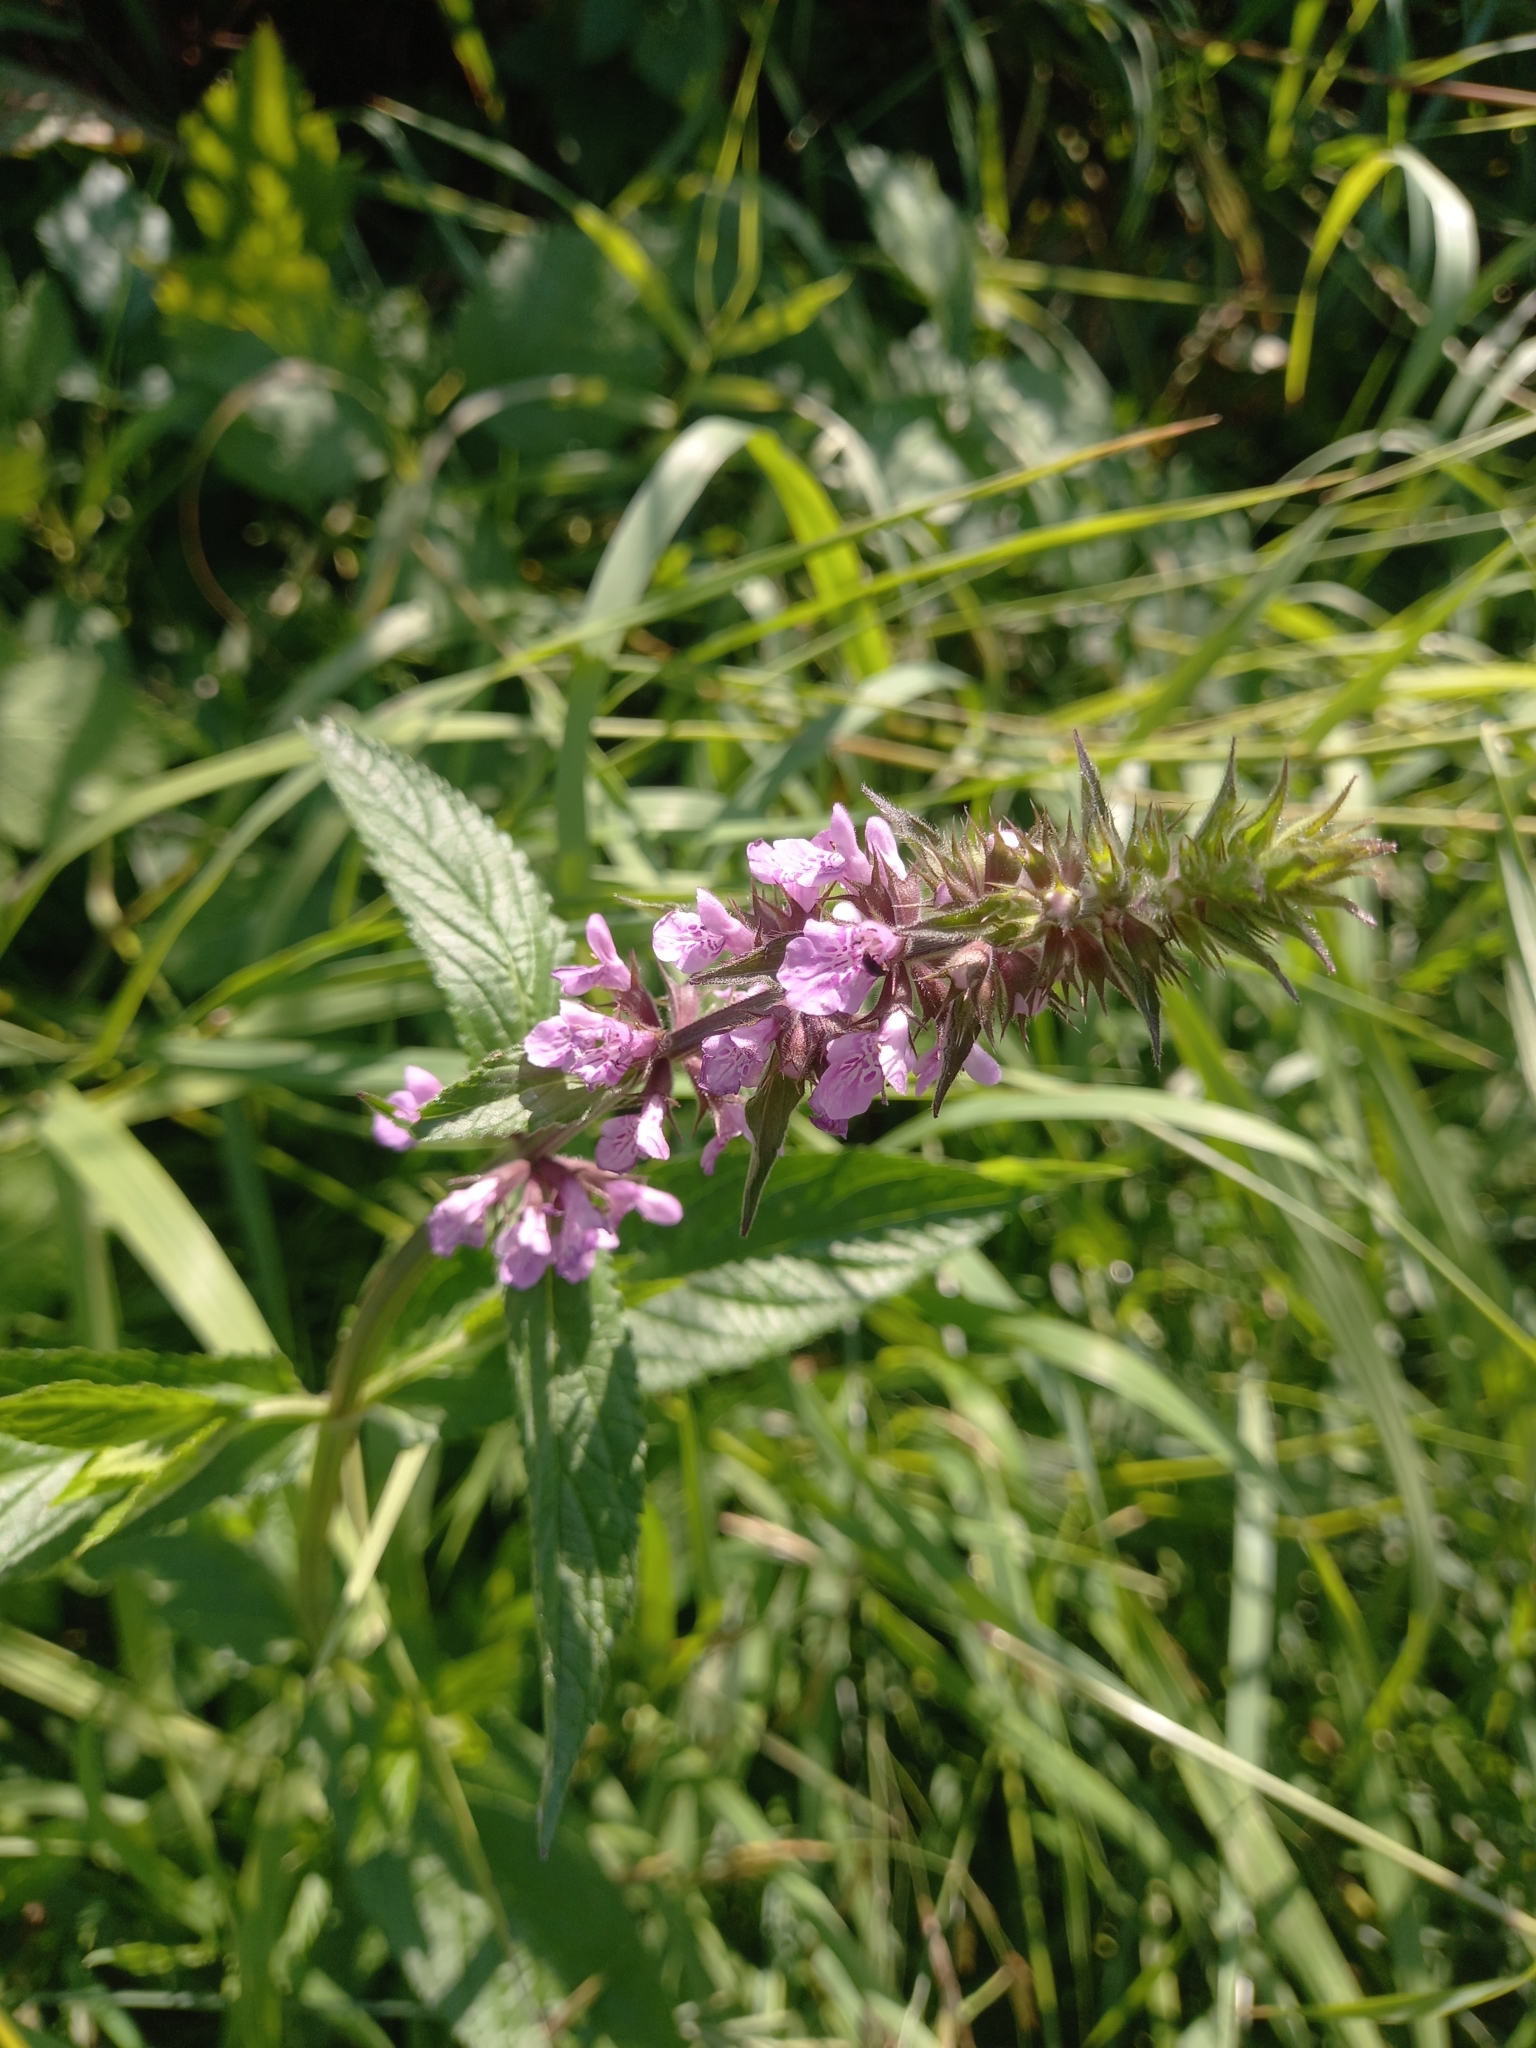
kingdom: Plantae
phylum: Tracheophyta
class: Magnoliopsida
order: Lamiales
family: Lamiaceae
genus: Stachys
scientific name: Stachys palustris
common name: Marsh woundwort
